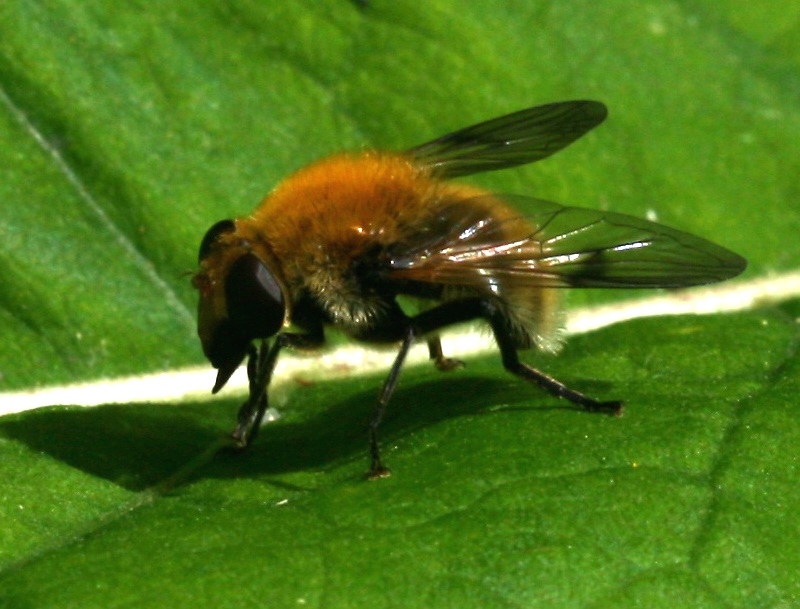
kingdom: Animalia
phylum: Arthropoda
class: Insecta
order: Diptera
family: Syrphidae
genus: Sericomyia
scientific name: Sericomyia superbiens
